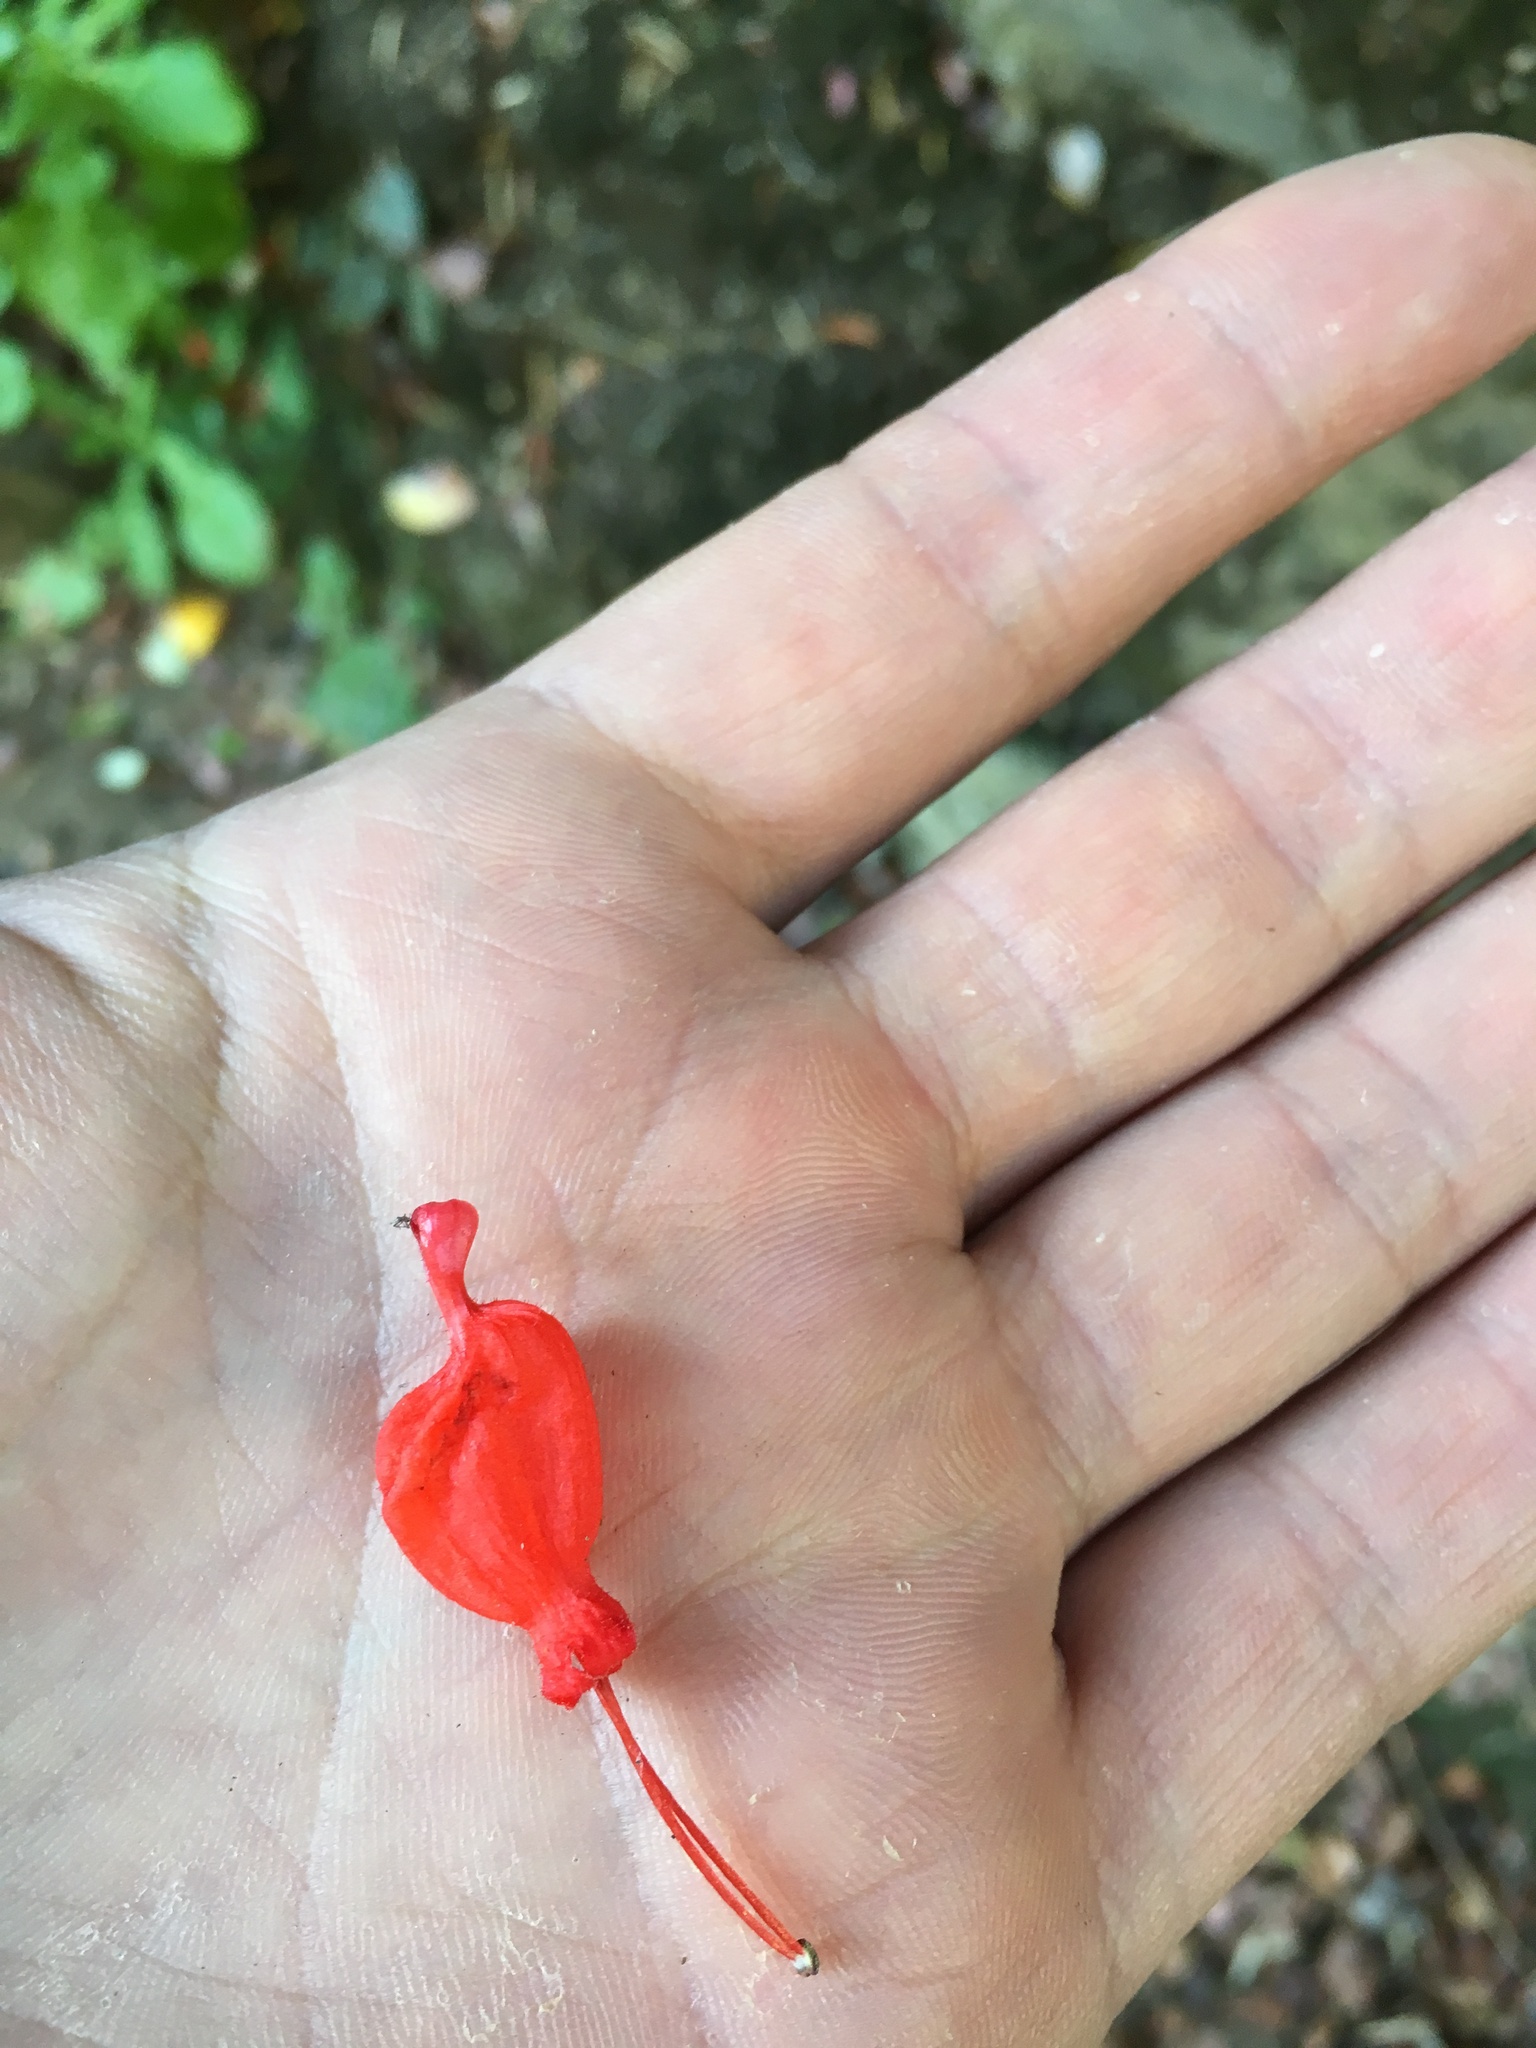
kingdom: Plantae
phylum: Tracheophyta
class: Magnoliopsida
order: Lamiales
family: Gesneriaceae
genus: Sarmienta
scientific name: Sarmienta scandens
